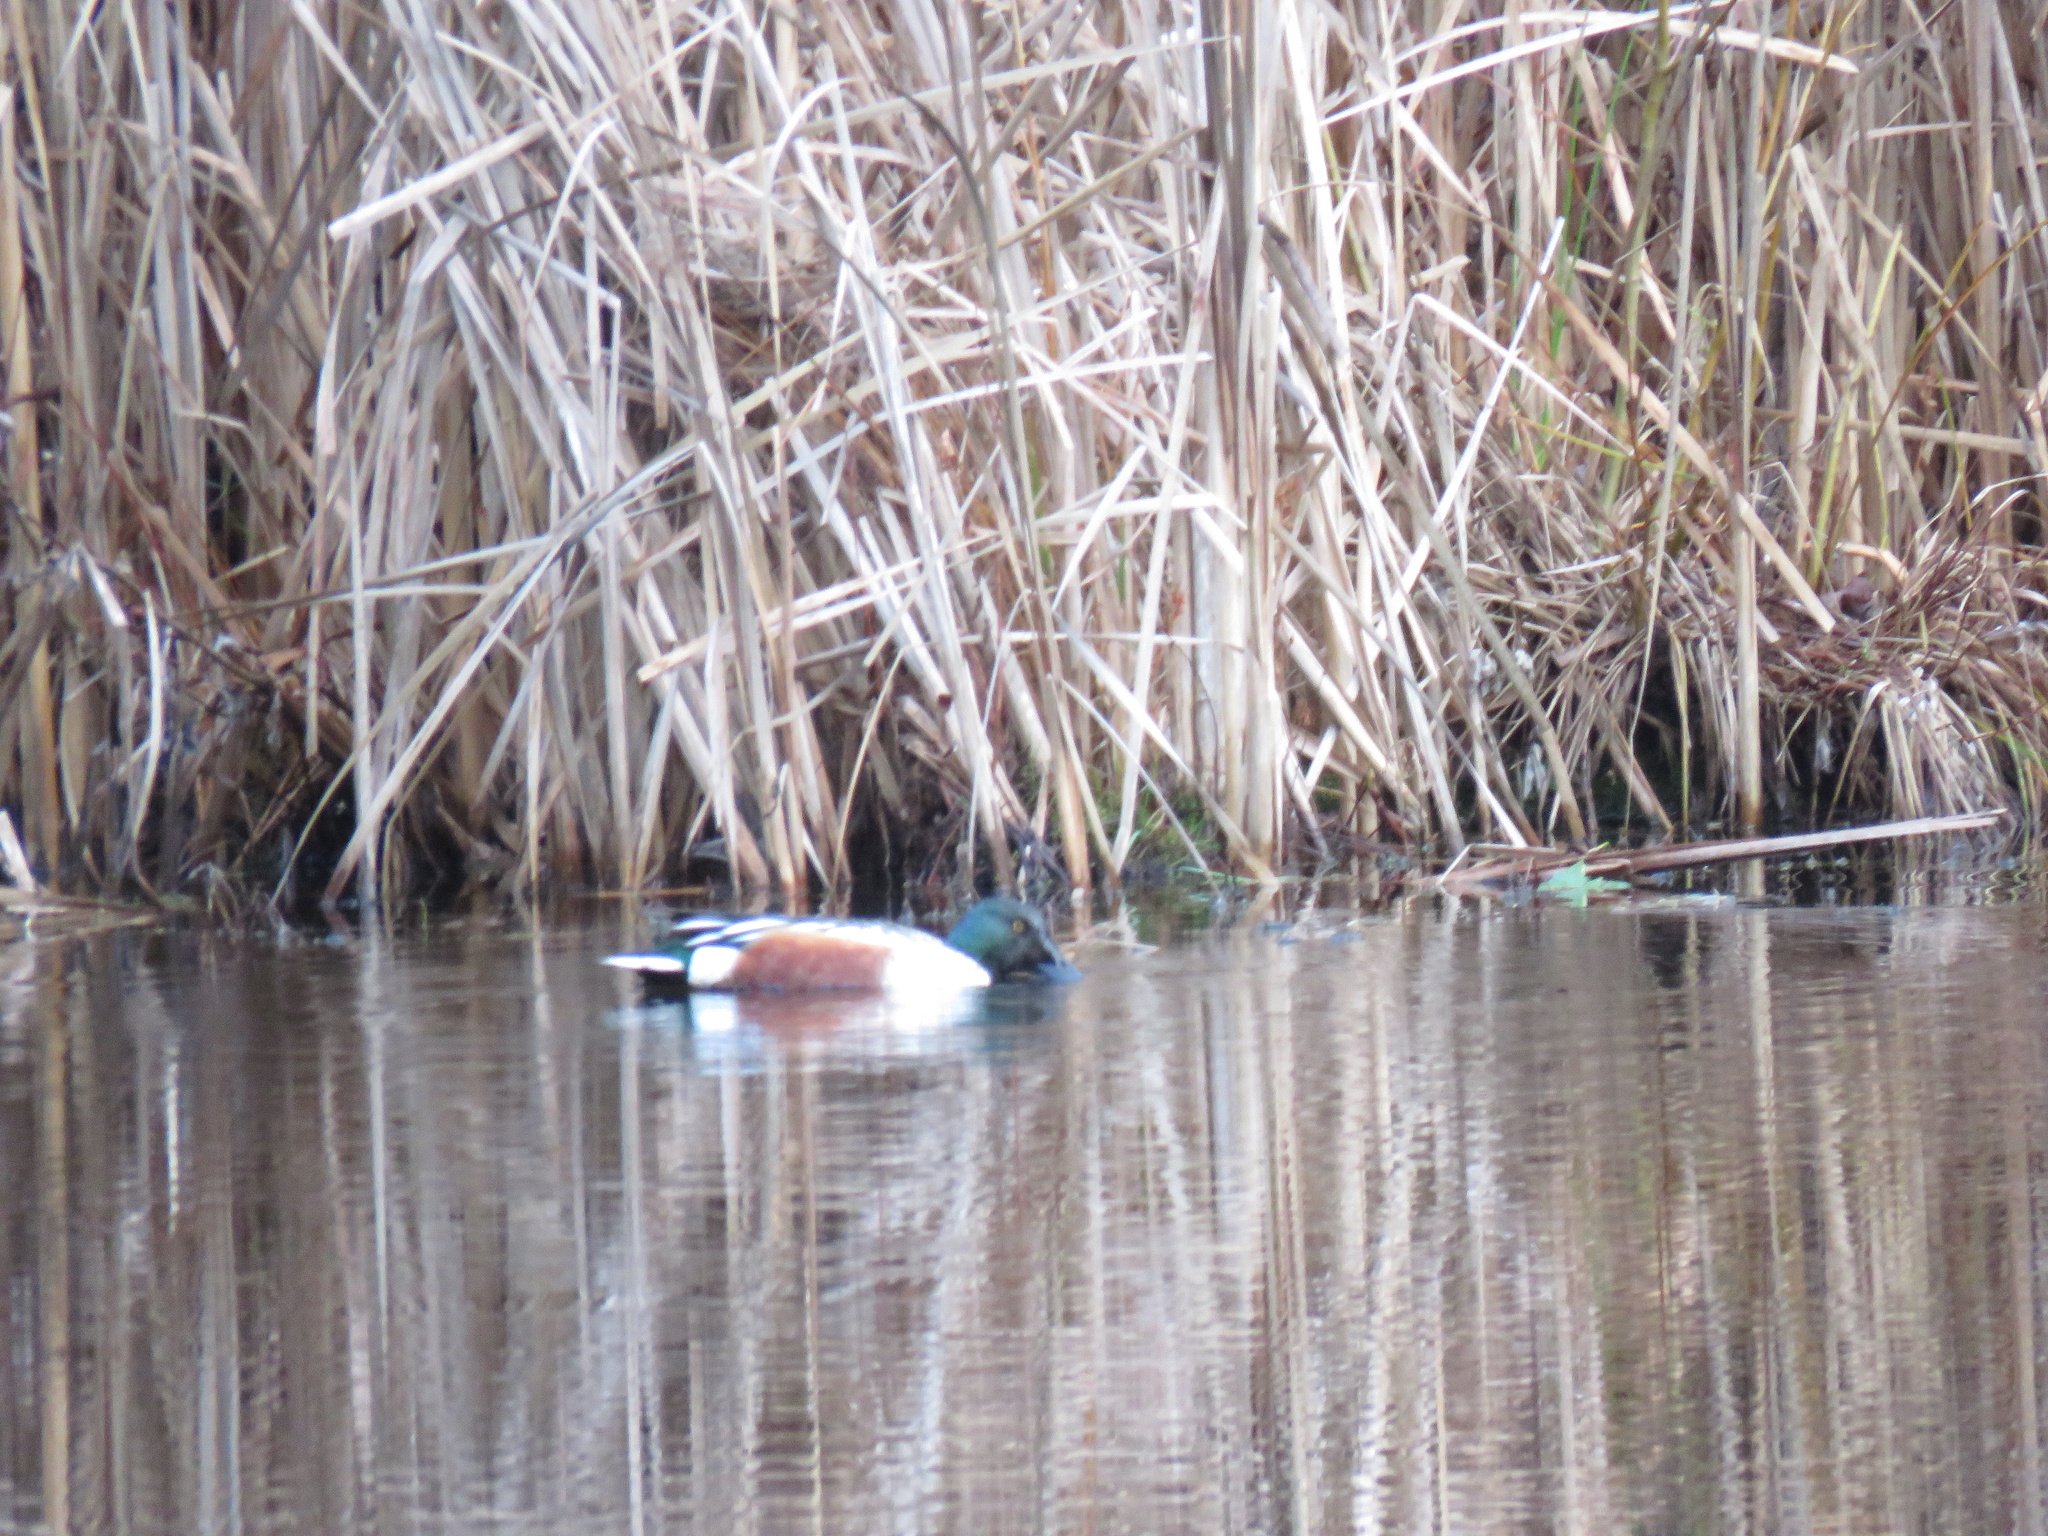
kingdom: Animalia
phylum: Chordata
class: Aves
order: Anseriformes
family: Anatidae
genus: Spatula
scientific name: Spatula clypeata
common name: Northern shoveler
